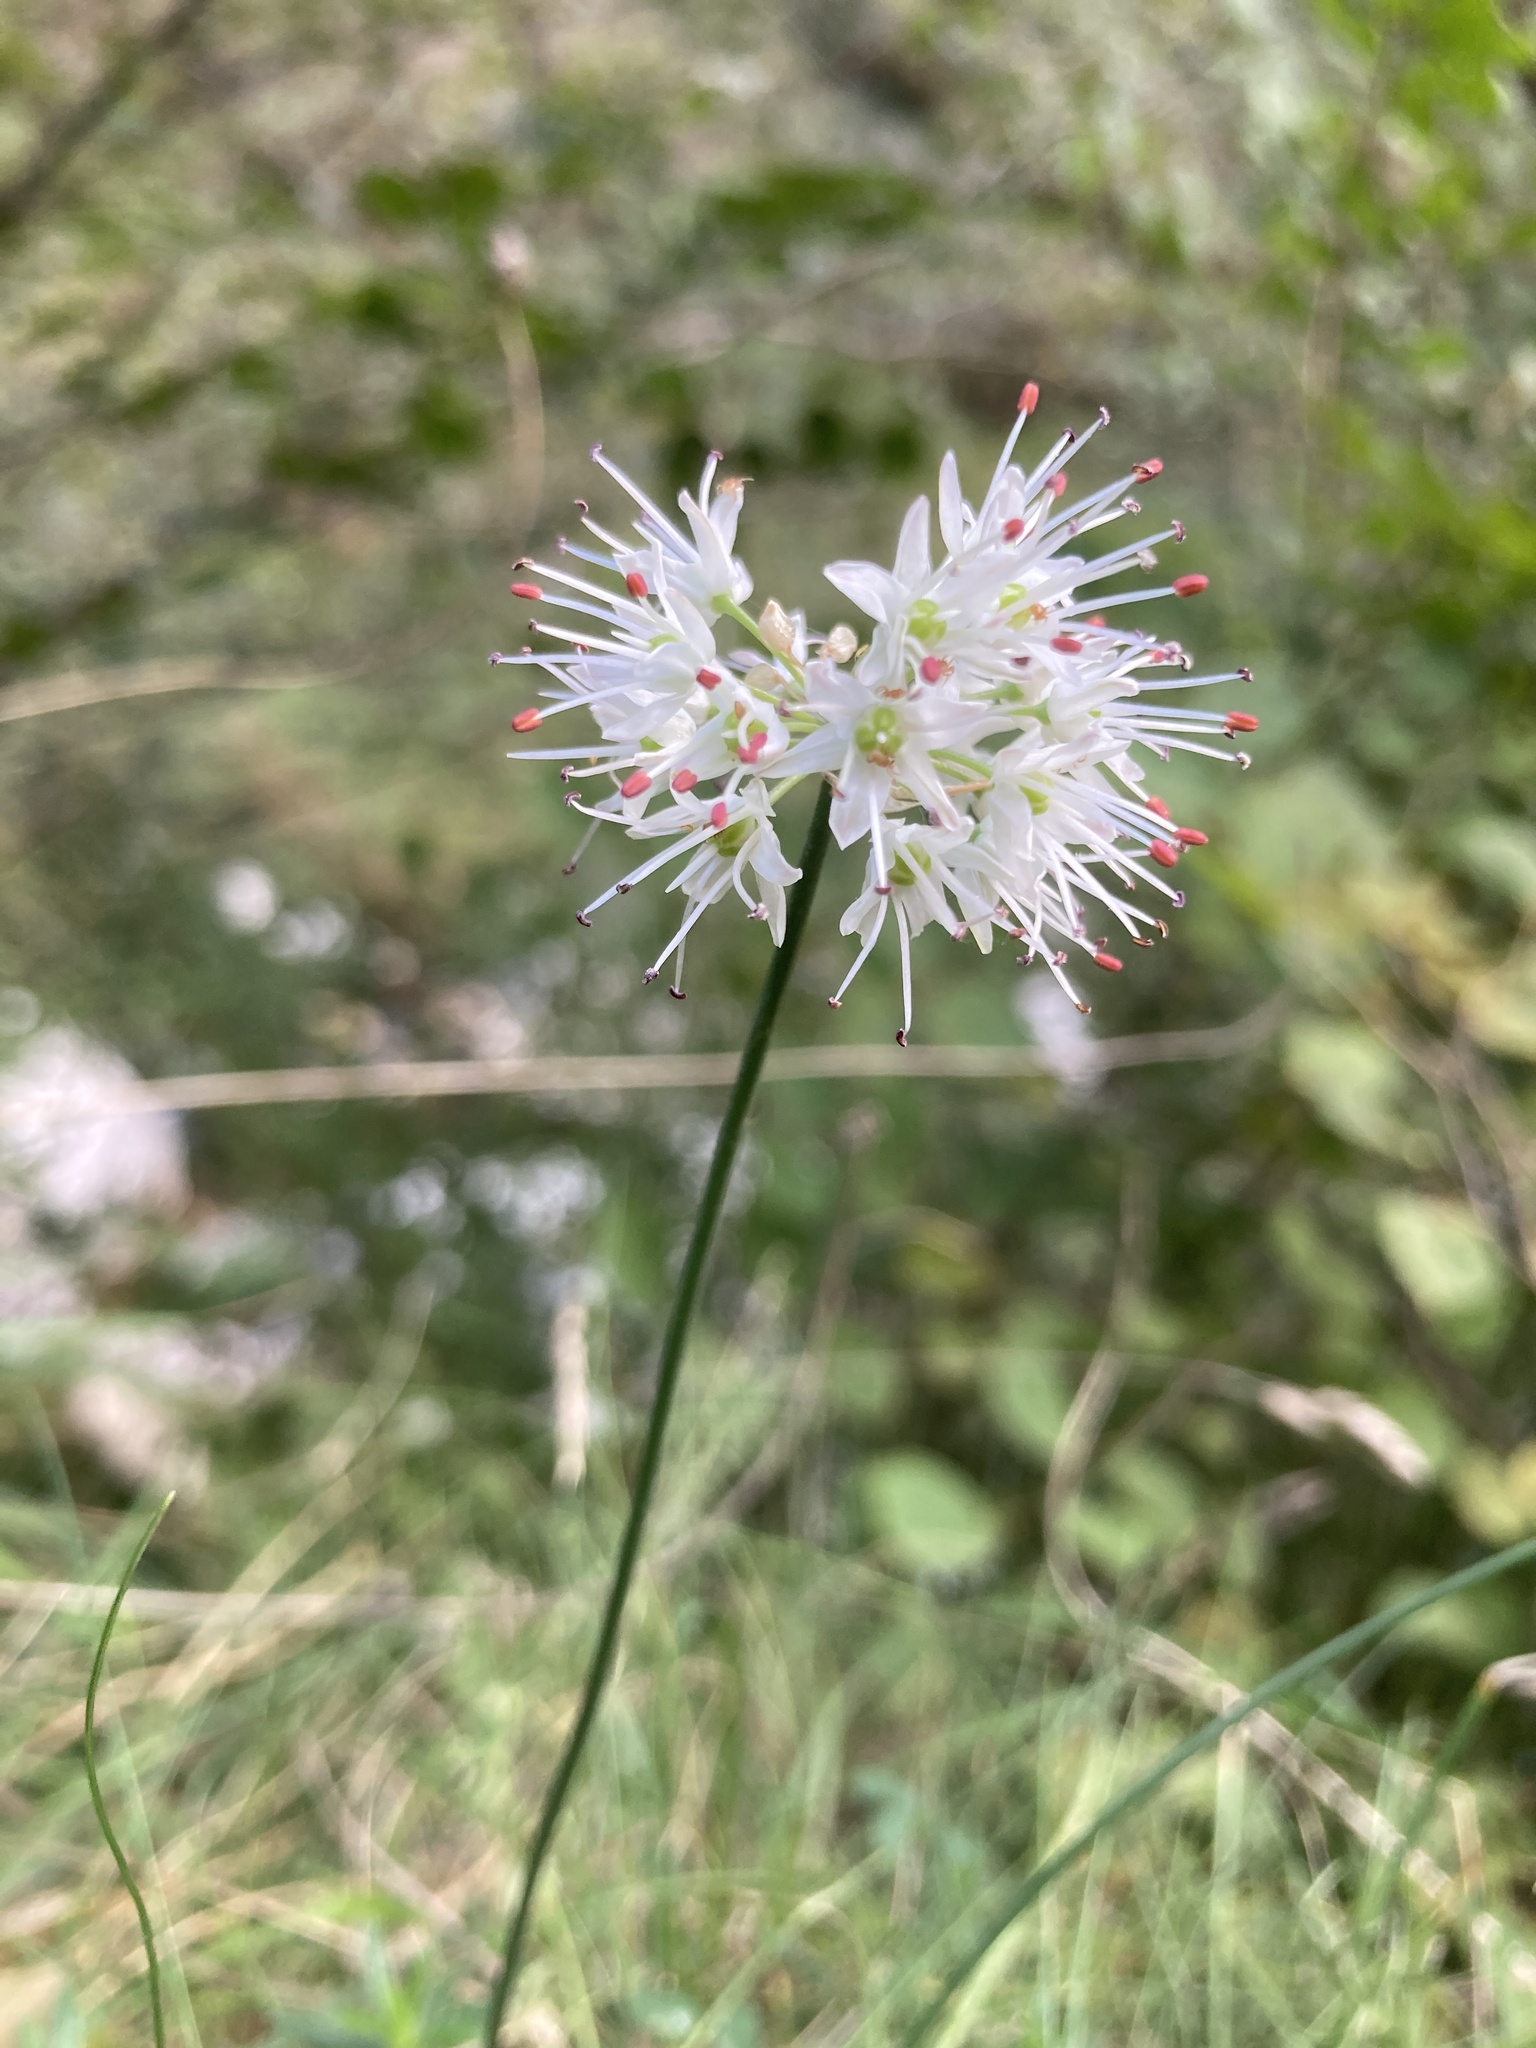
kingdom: Plantae
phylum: Tracheophyta
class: Liliopsida
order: Asparagales
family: Amaryllidaceae
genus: Allium
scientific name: Allium ericetorum
